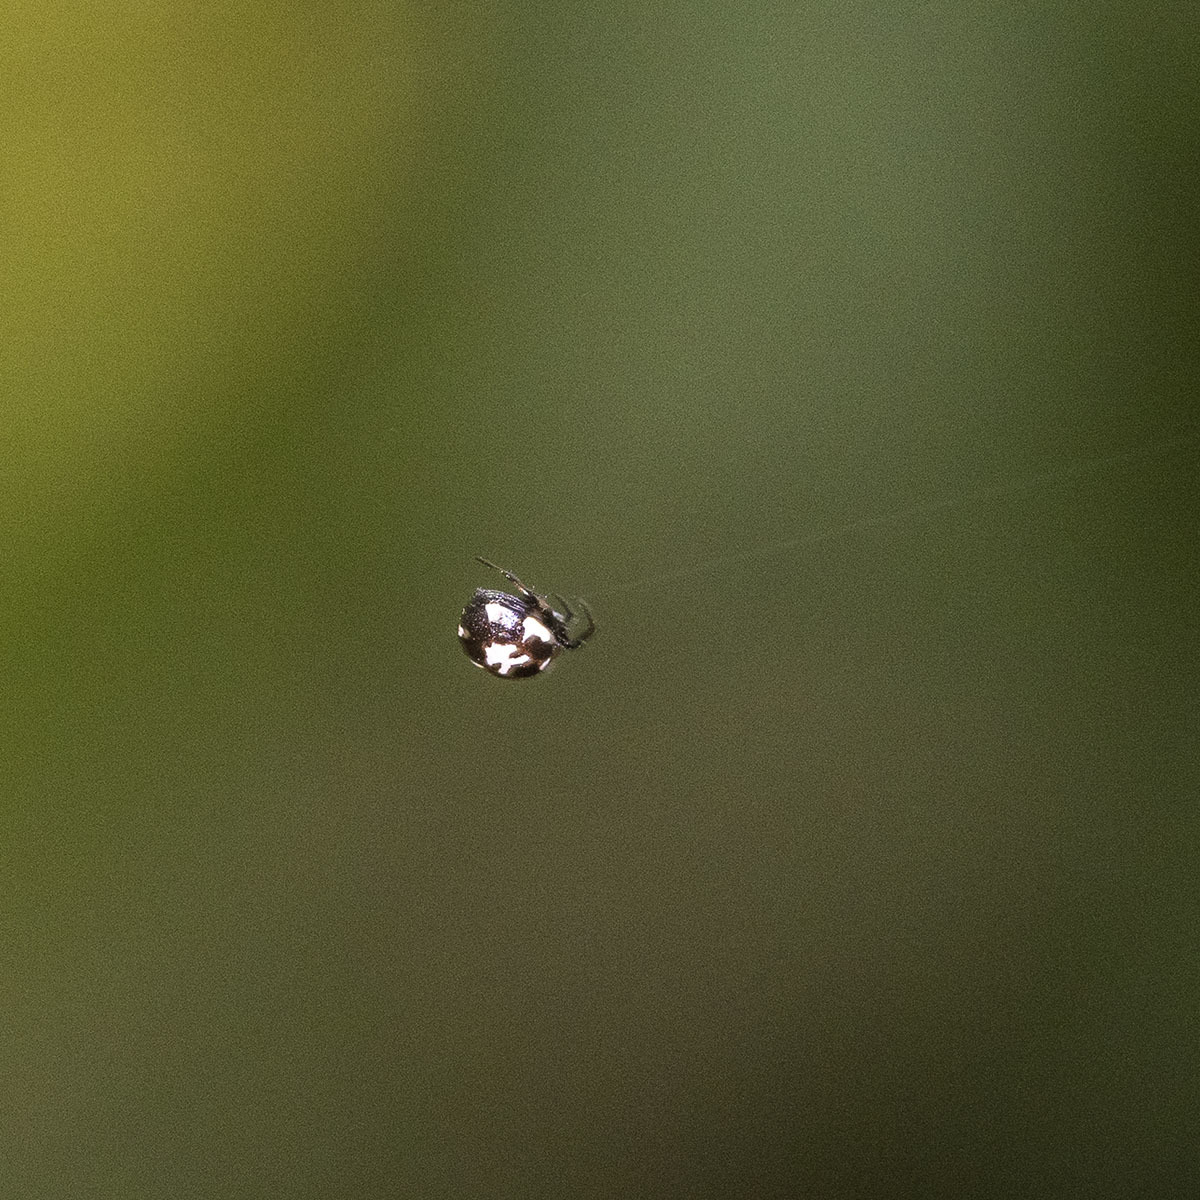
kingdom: Animalia
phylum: Arthropoda
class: Arachnida
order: Araneae
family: Araneidae
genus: Anepsion
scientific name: Anepsion maritatum
